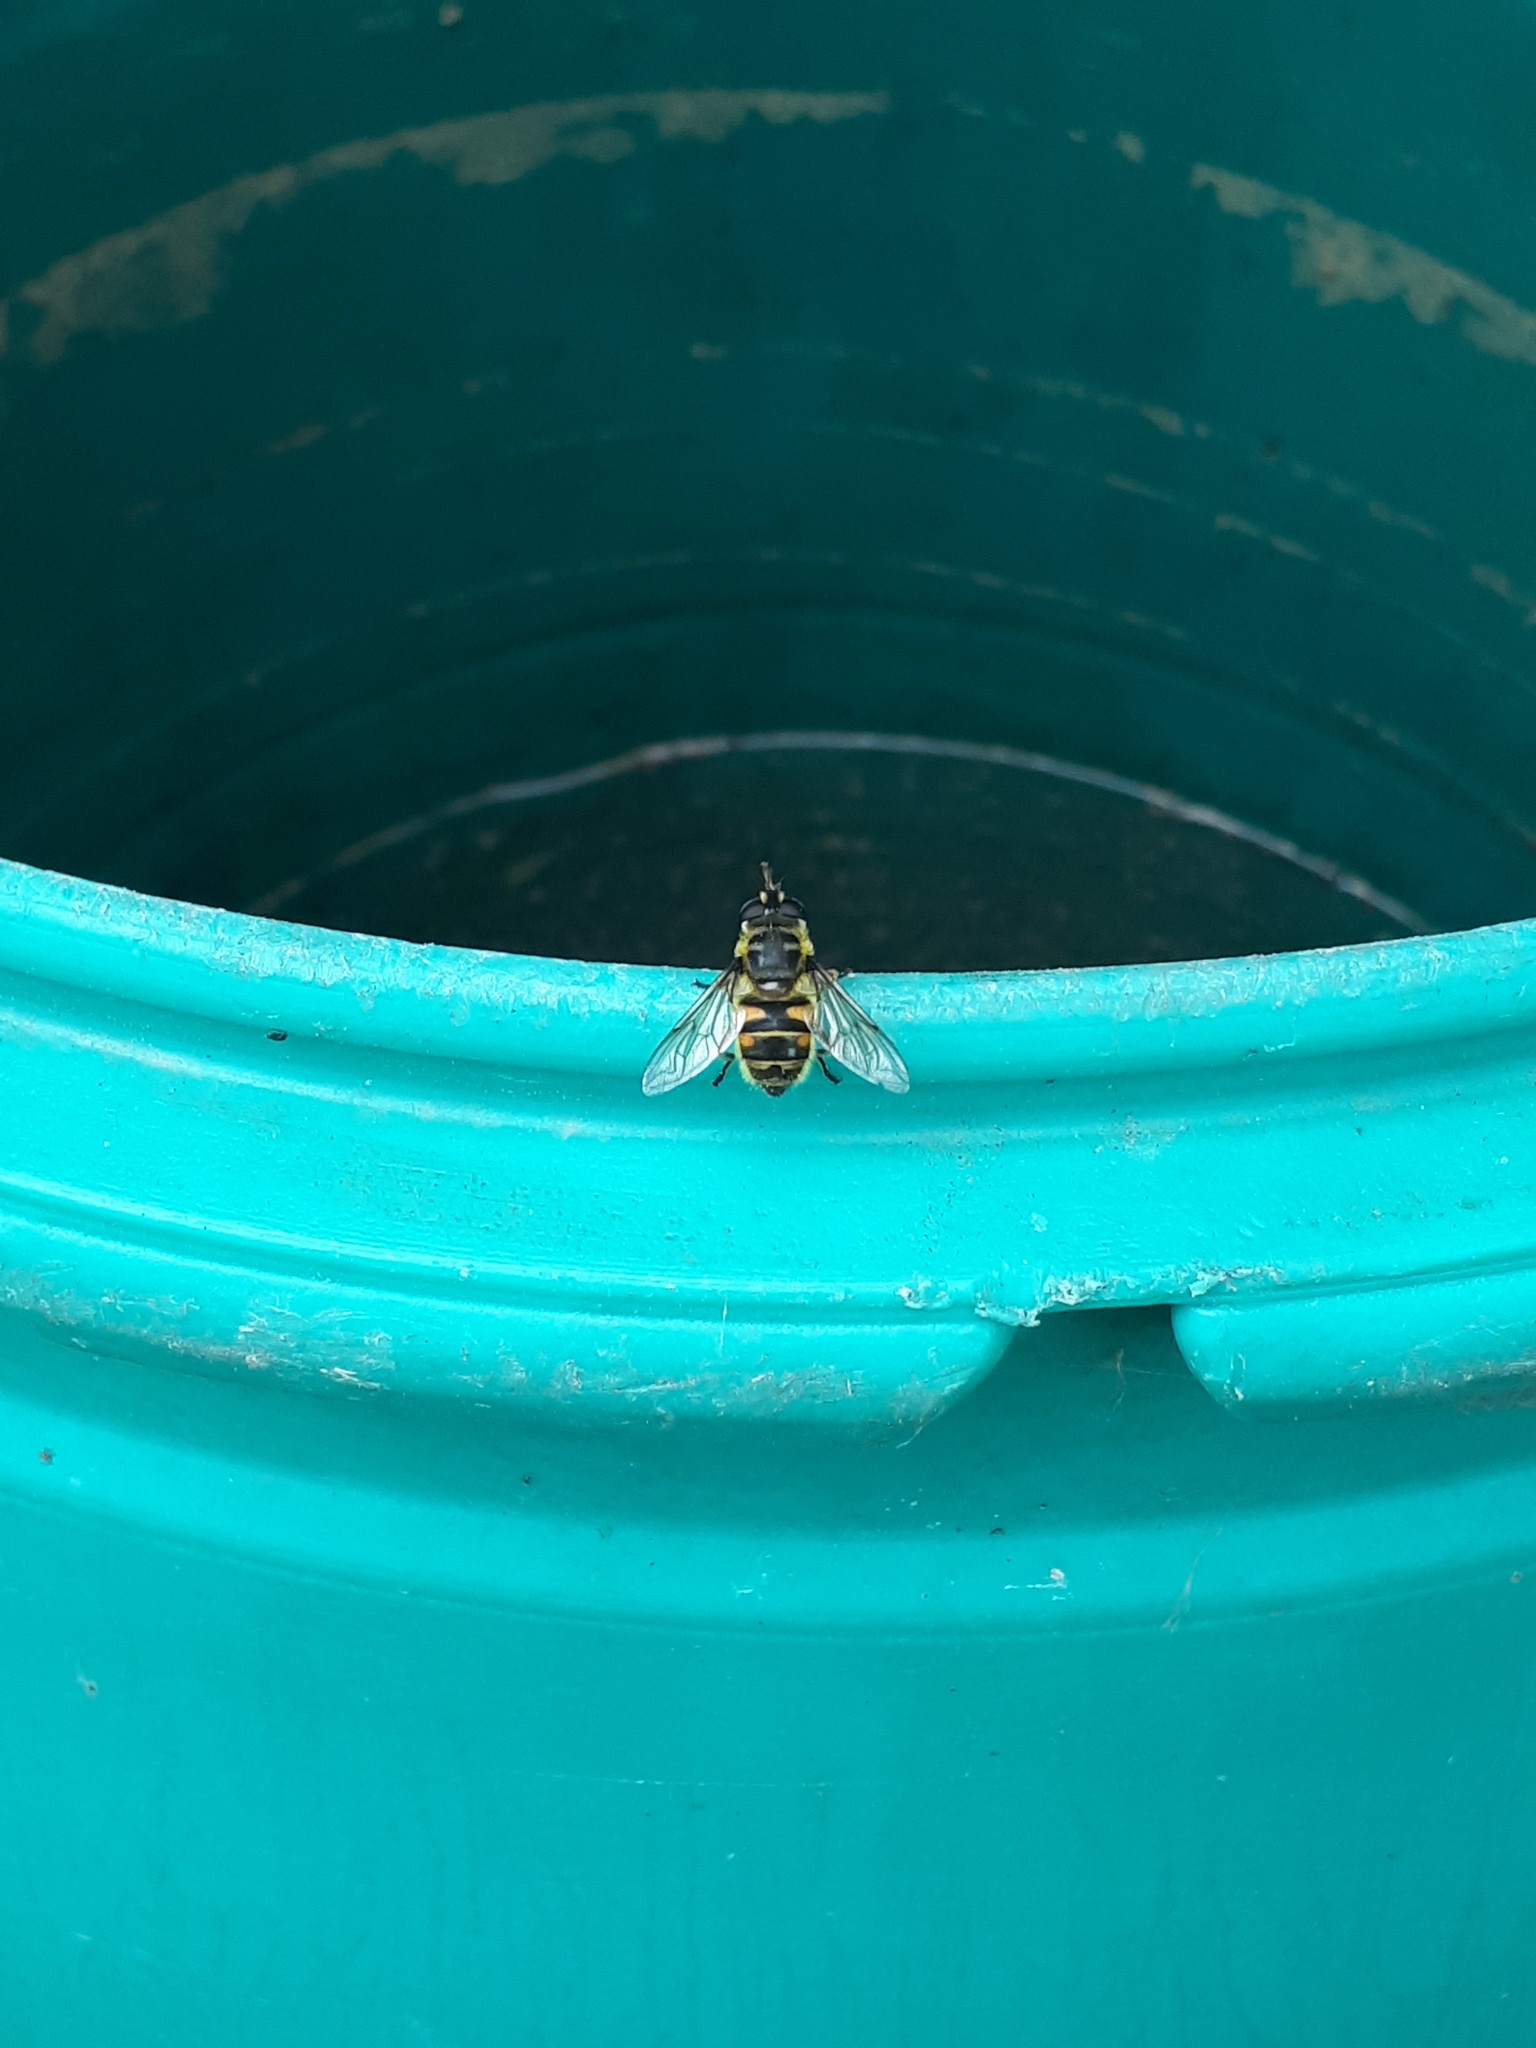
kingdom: Animalia
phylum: Arthropoda
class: Insecta
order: Diptera
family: Syrphidae
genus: Myathropa
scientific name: Myathropa florea
